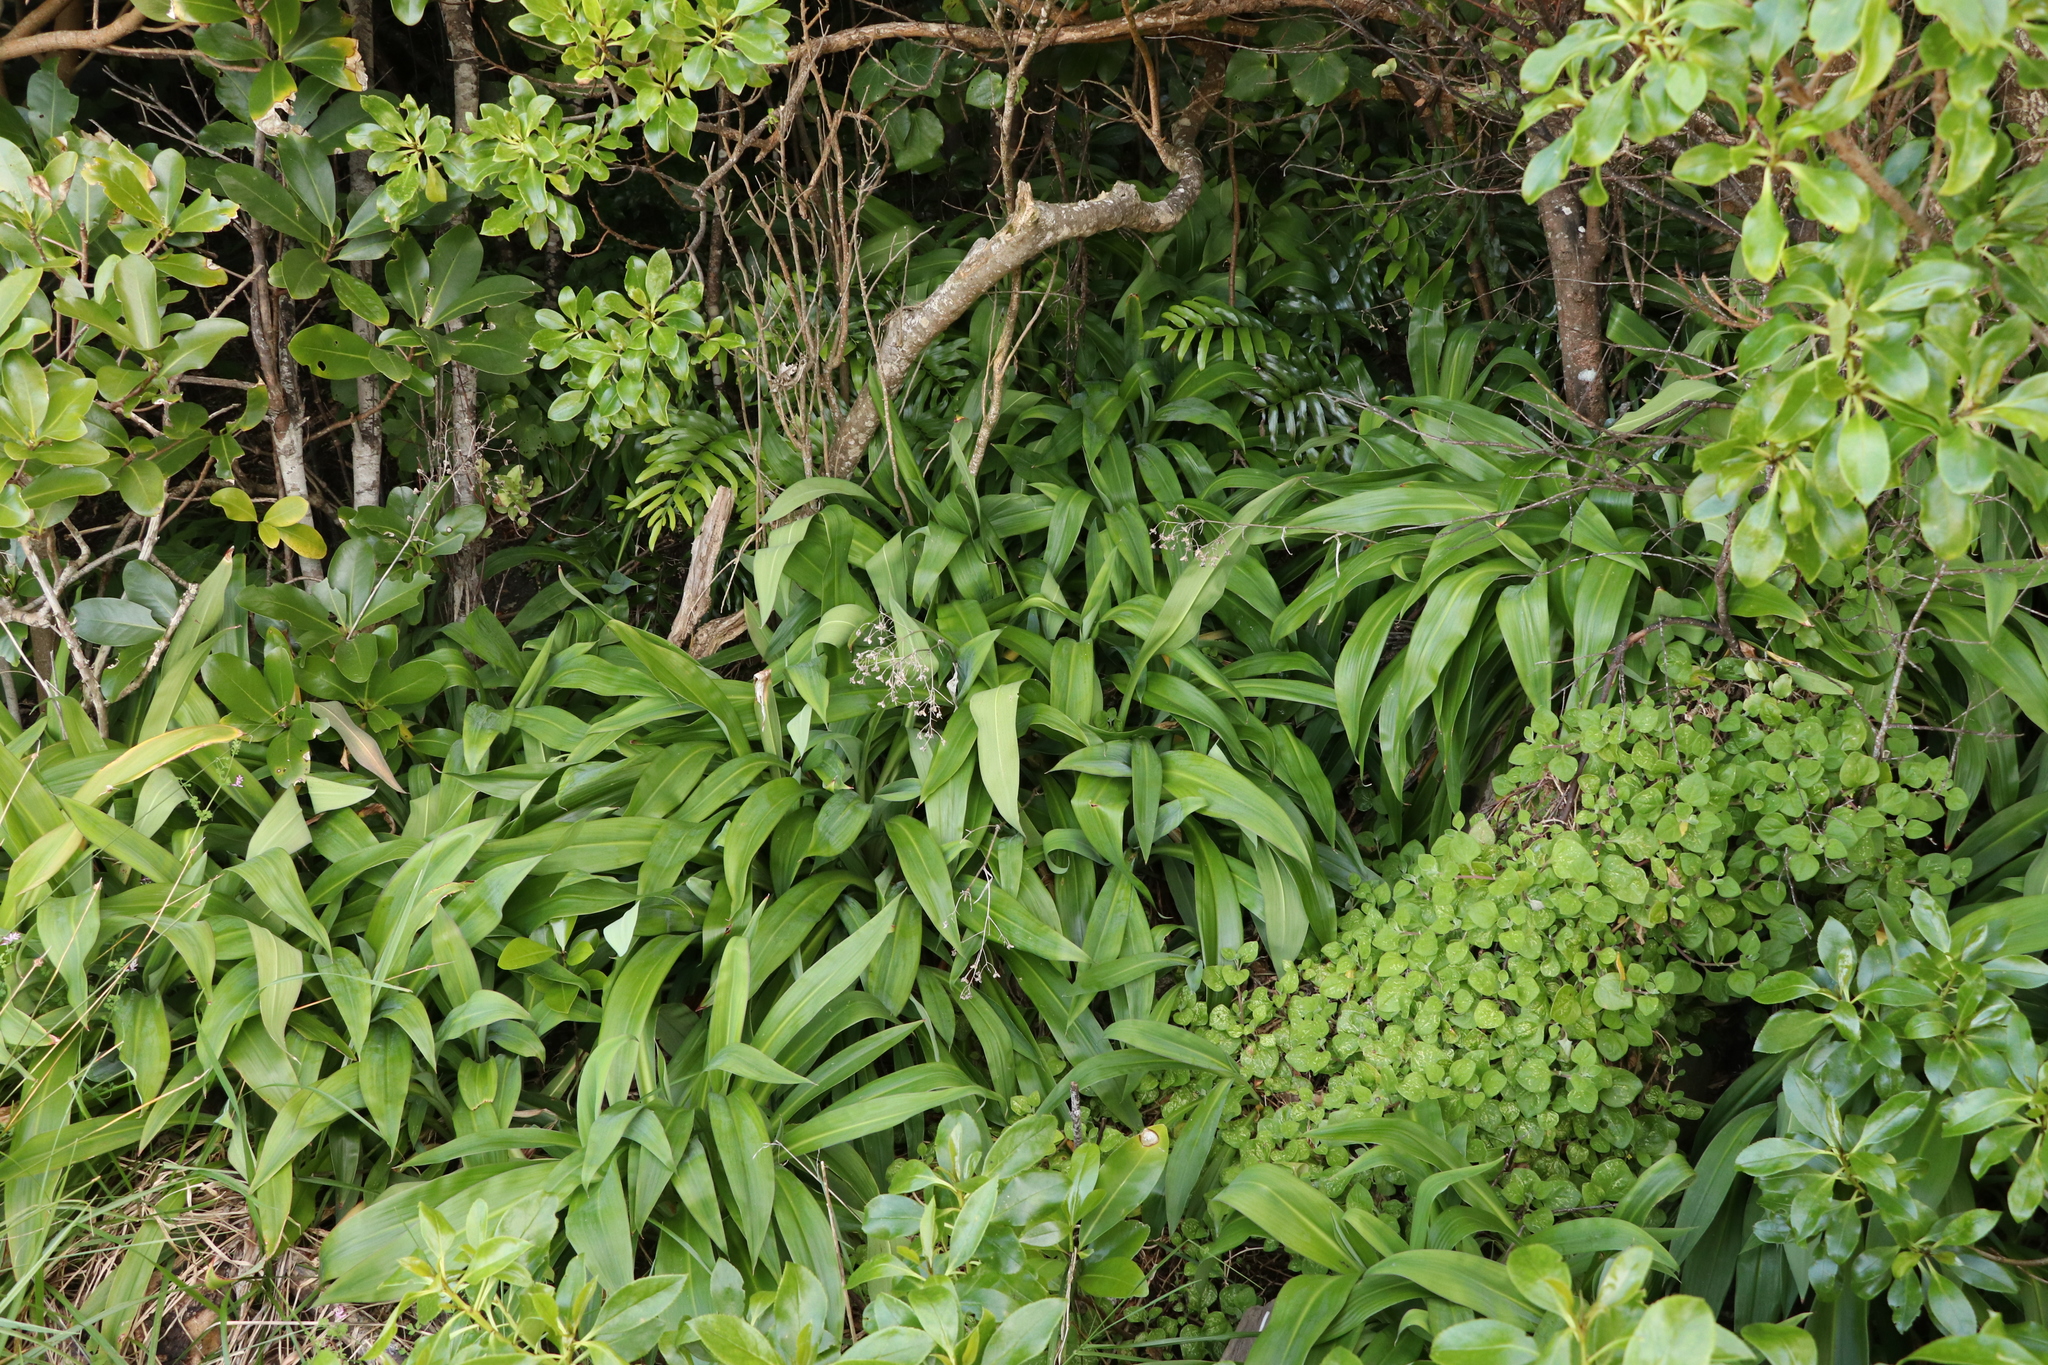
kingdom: Plantae
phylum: Tracheophyta
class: Liliopsida
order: Asparagales
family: Asparagaceae
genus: Arthropodium
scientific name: Arthropodium cirratum
